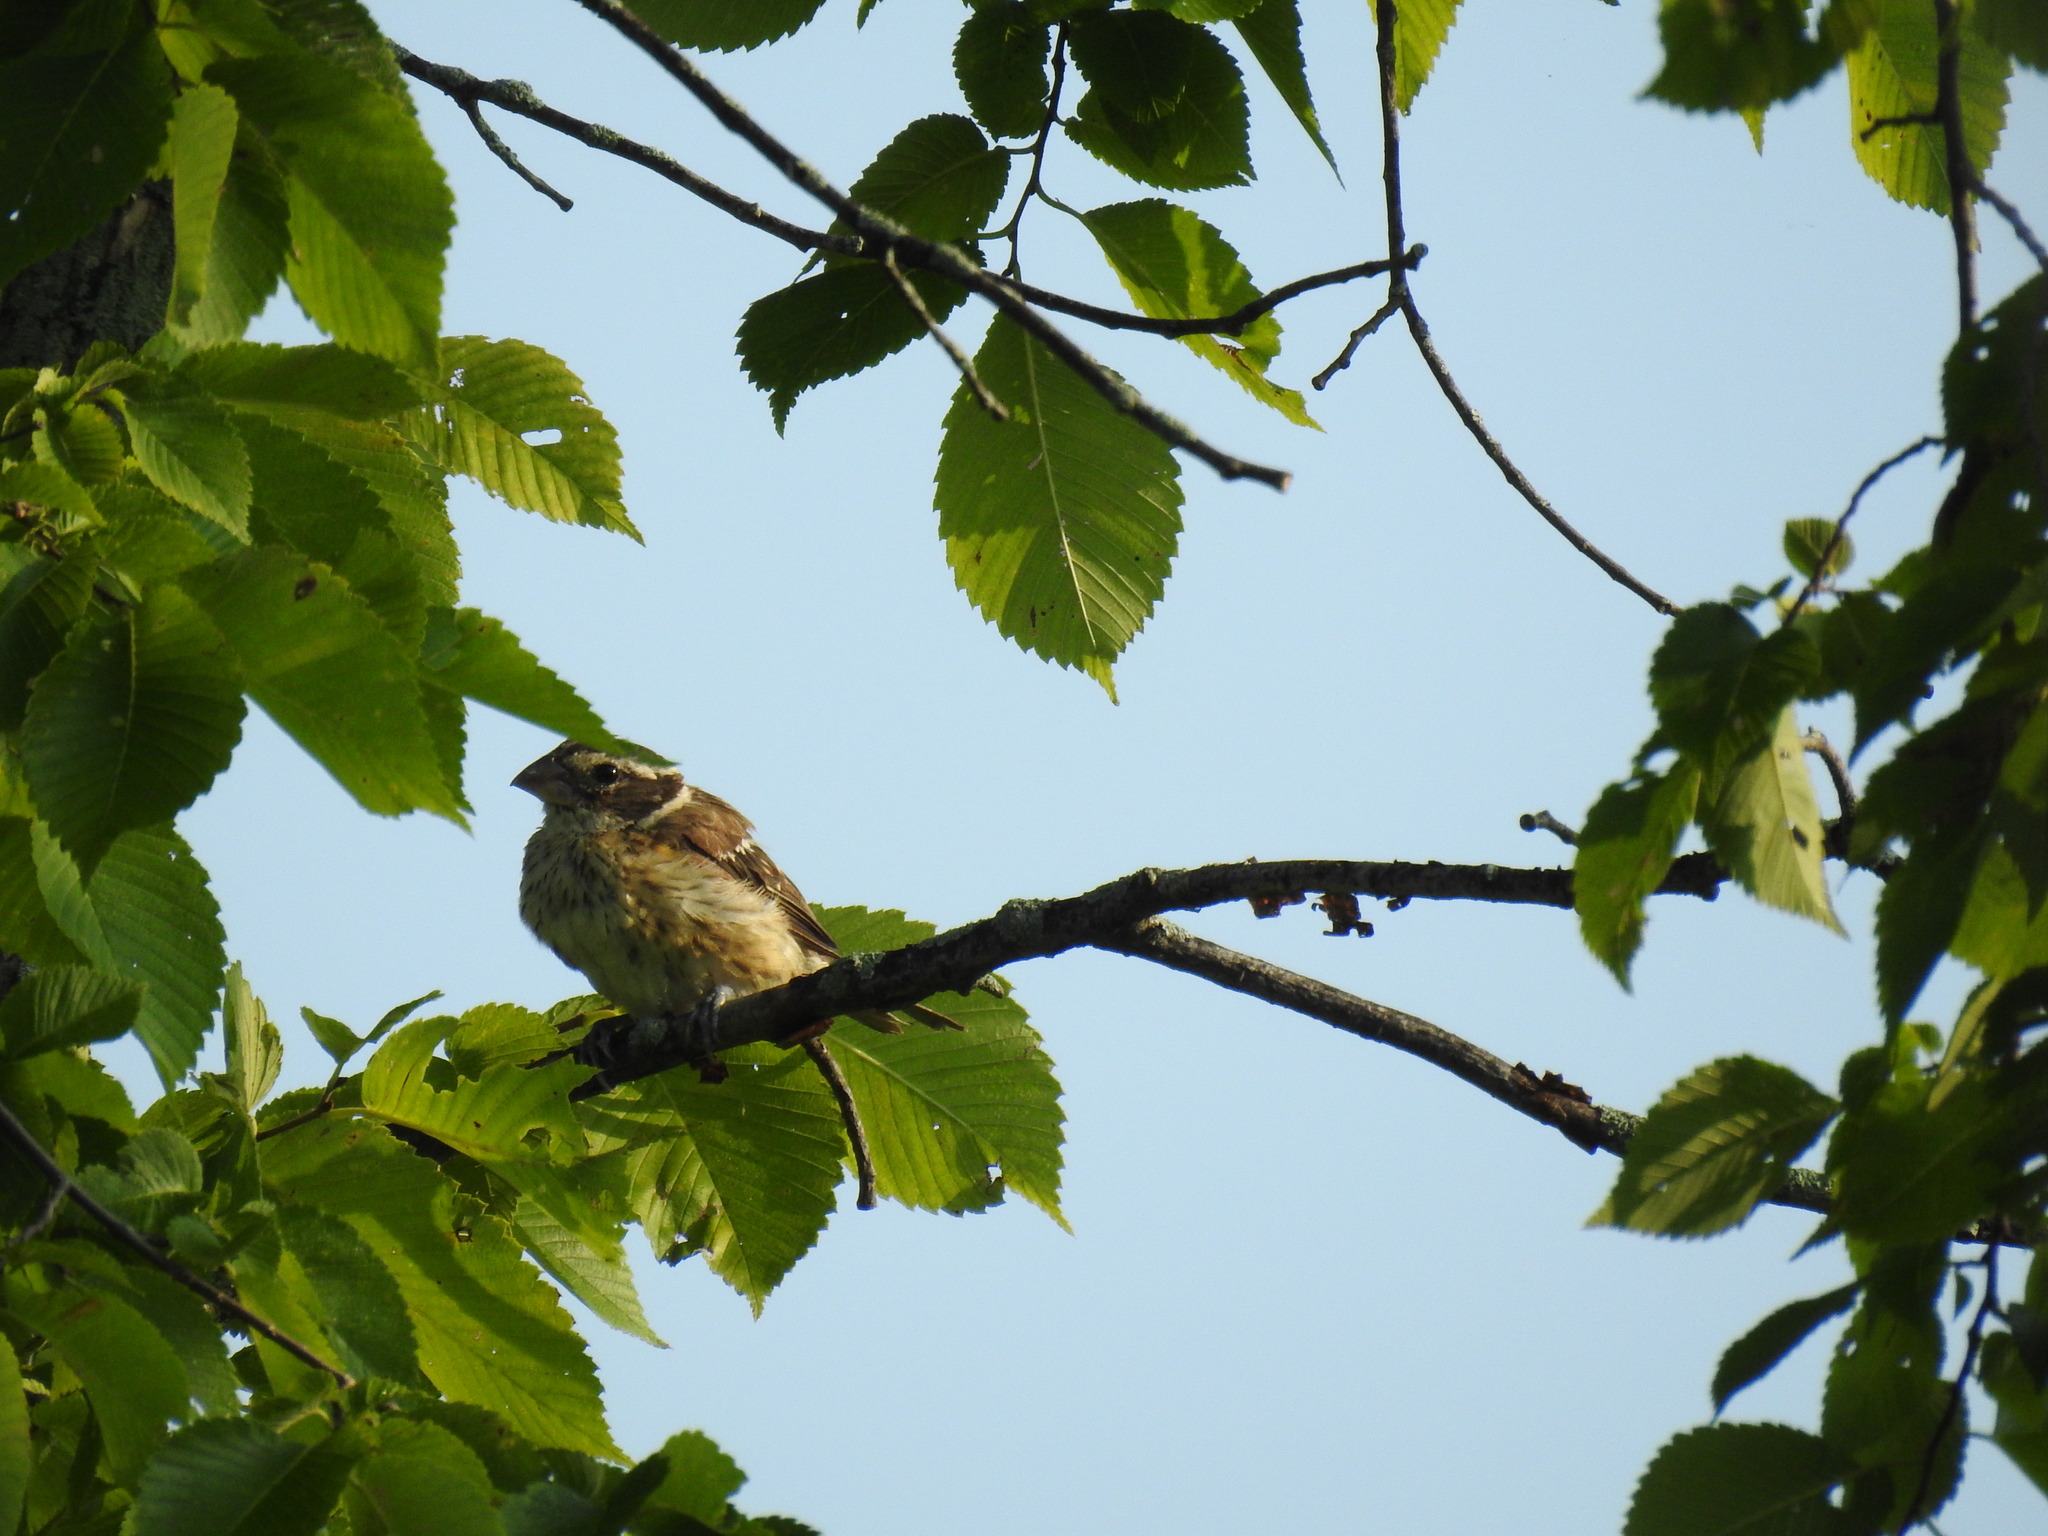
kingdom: Animalia
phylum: Chordata
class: Aves
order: Passeriformes
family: Cardinalidae
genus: Pheucticus
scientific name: Pheucticus ludovicianus
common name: Rose-breasted grosbeak
